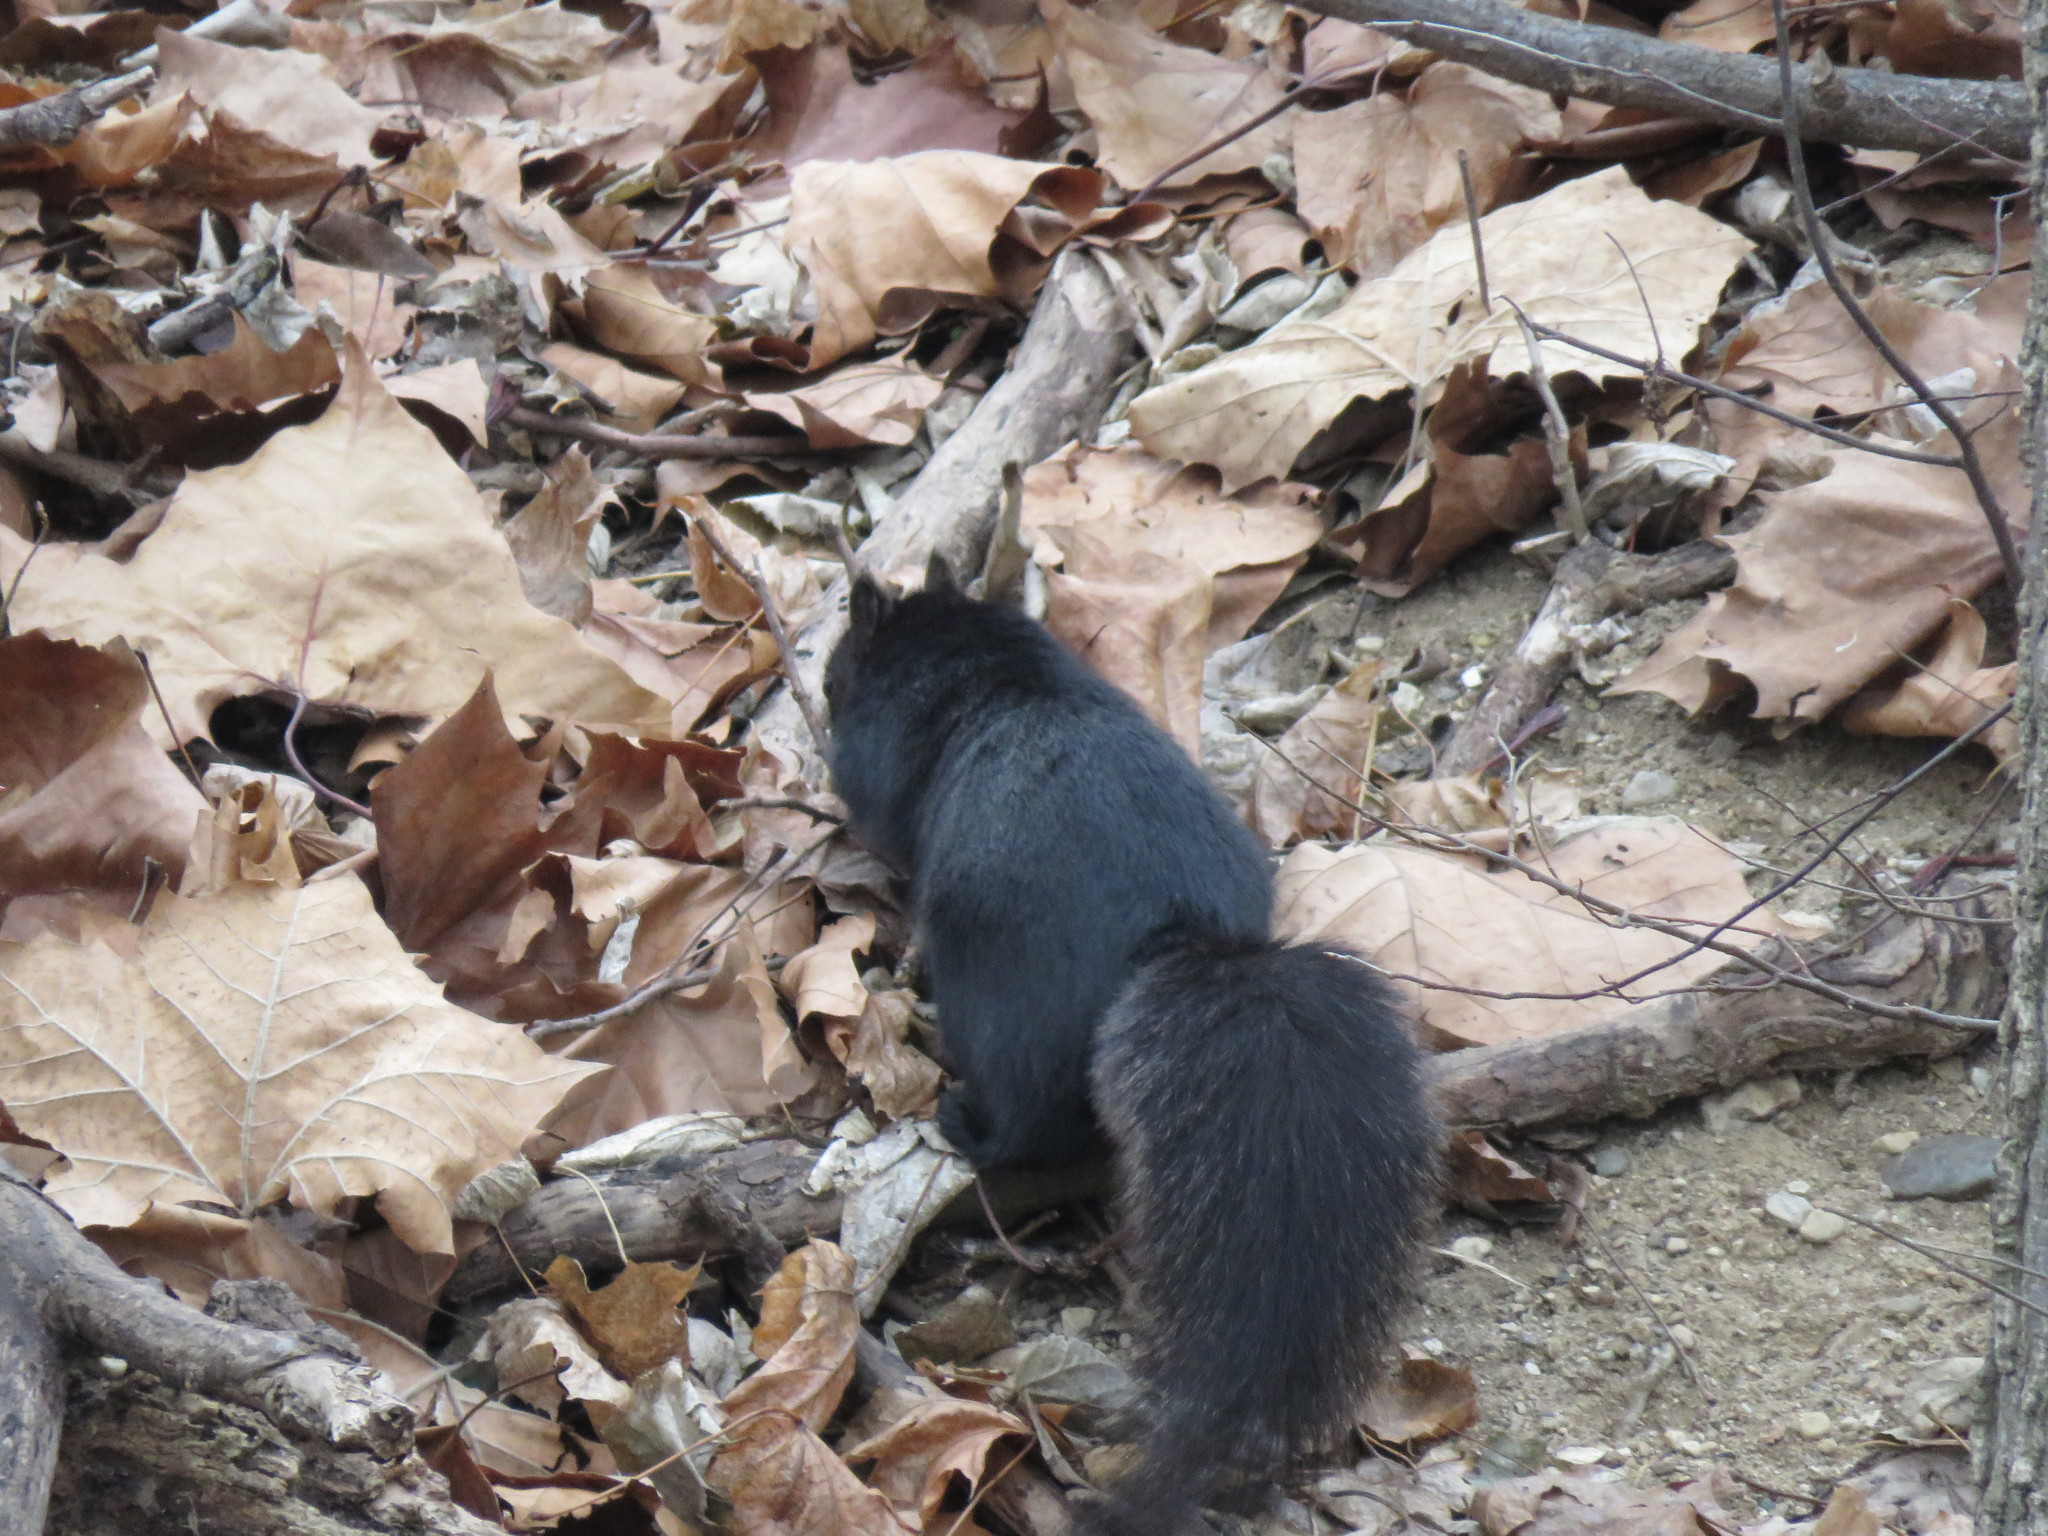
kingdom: Animalia
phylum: Chordata
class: Mammalia
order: Rodentia
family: Sciuridae
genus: Sciurus
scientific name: Sciurus carolinensis
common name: Eastern gray squirrel
